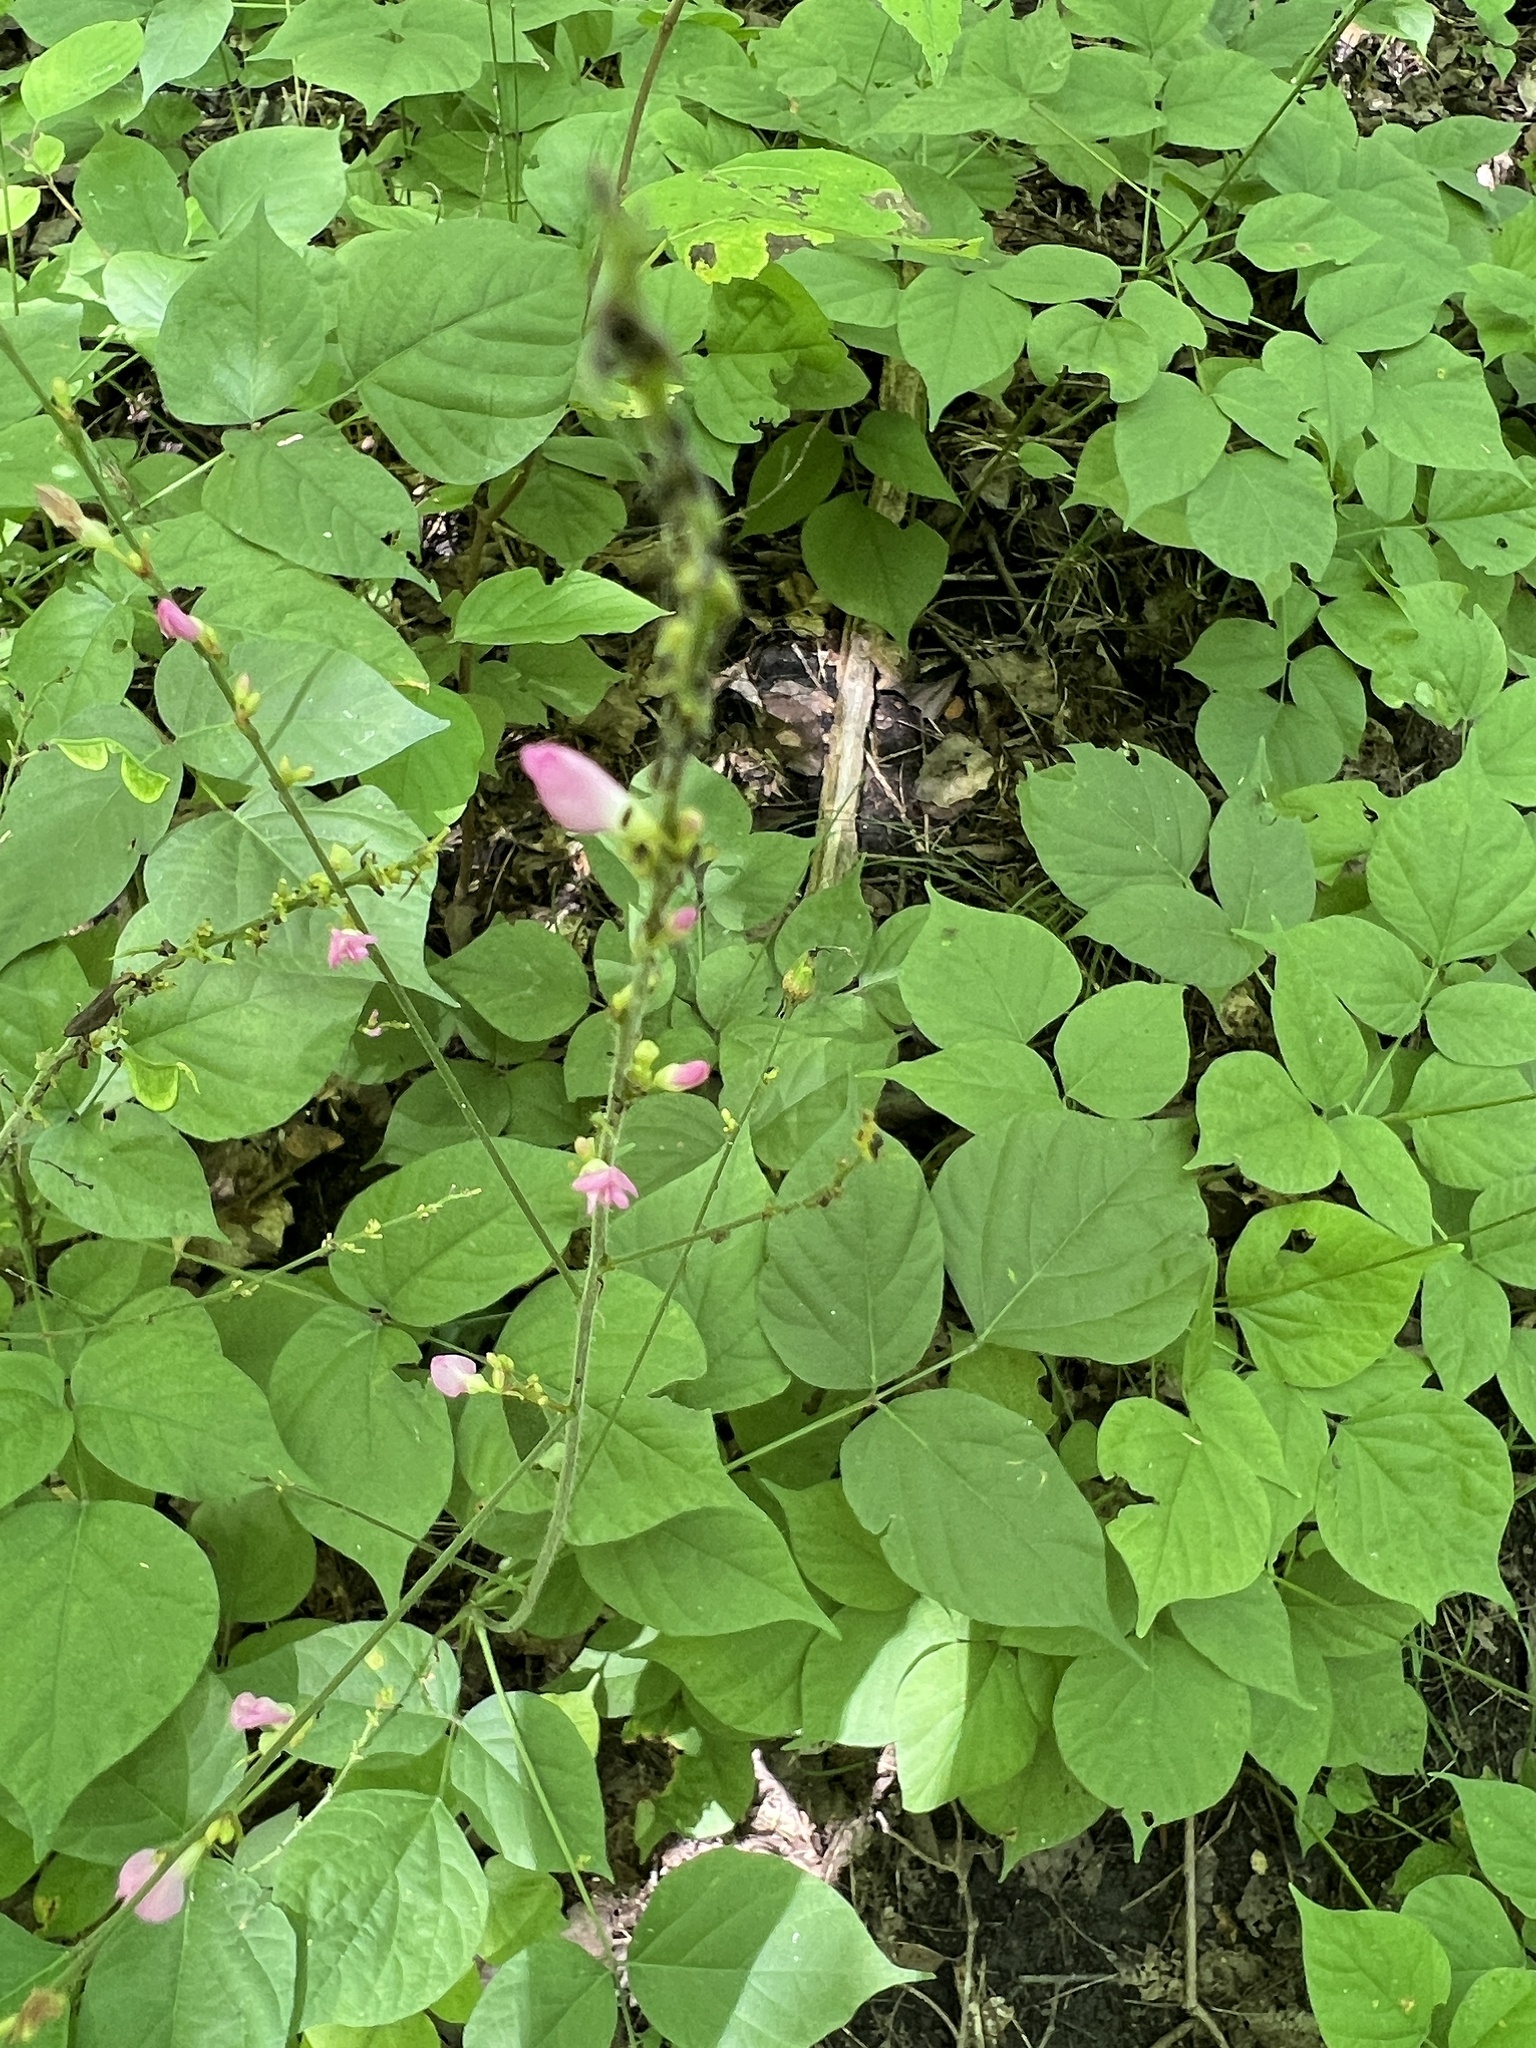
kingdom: Plantae
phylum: Tracheophyta
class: Magnoliopsida
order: Fabales
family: Fabaceae
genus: Hylodesmum
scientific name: Hylodesmum glutinosum
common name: Clustered-leaved tick-trefoil
